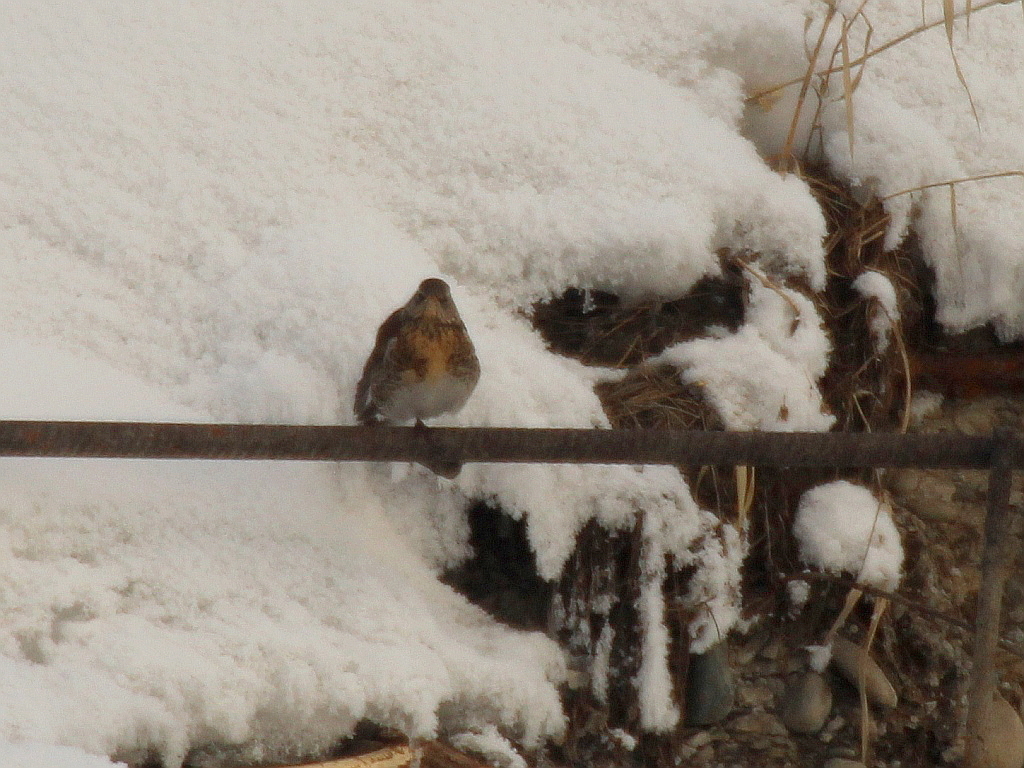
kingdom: Animalia
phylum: Chordata
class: Aves
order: Passeriformes
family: Turdidae
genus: Turdus
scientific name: Turdus pilaris
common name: Fieldfare
